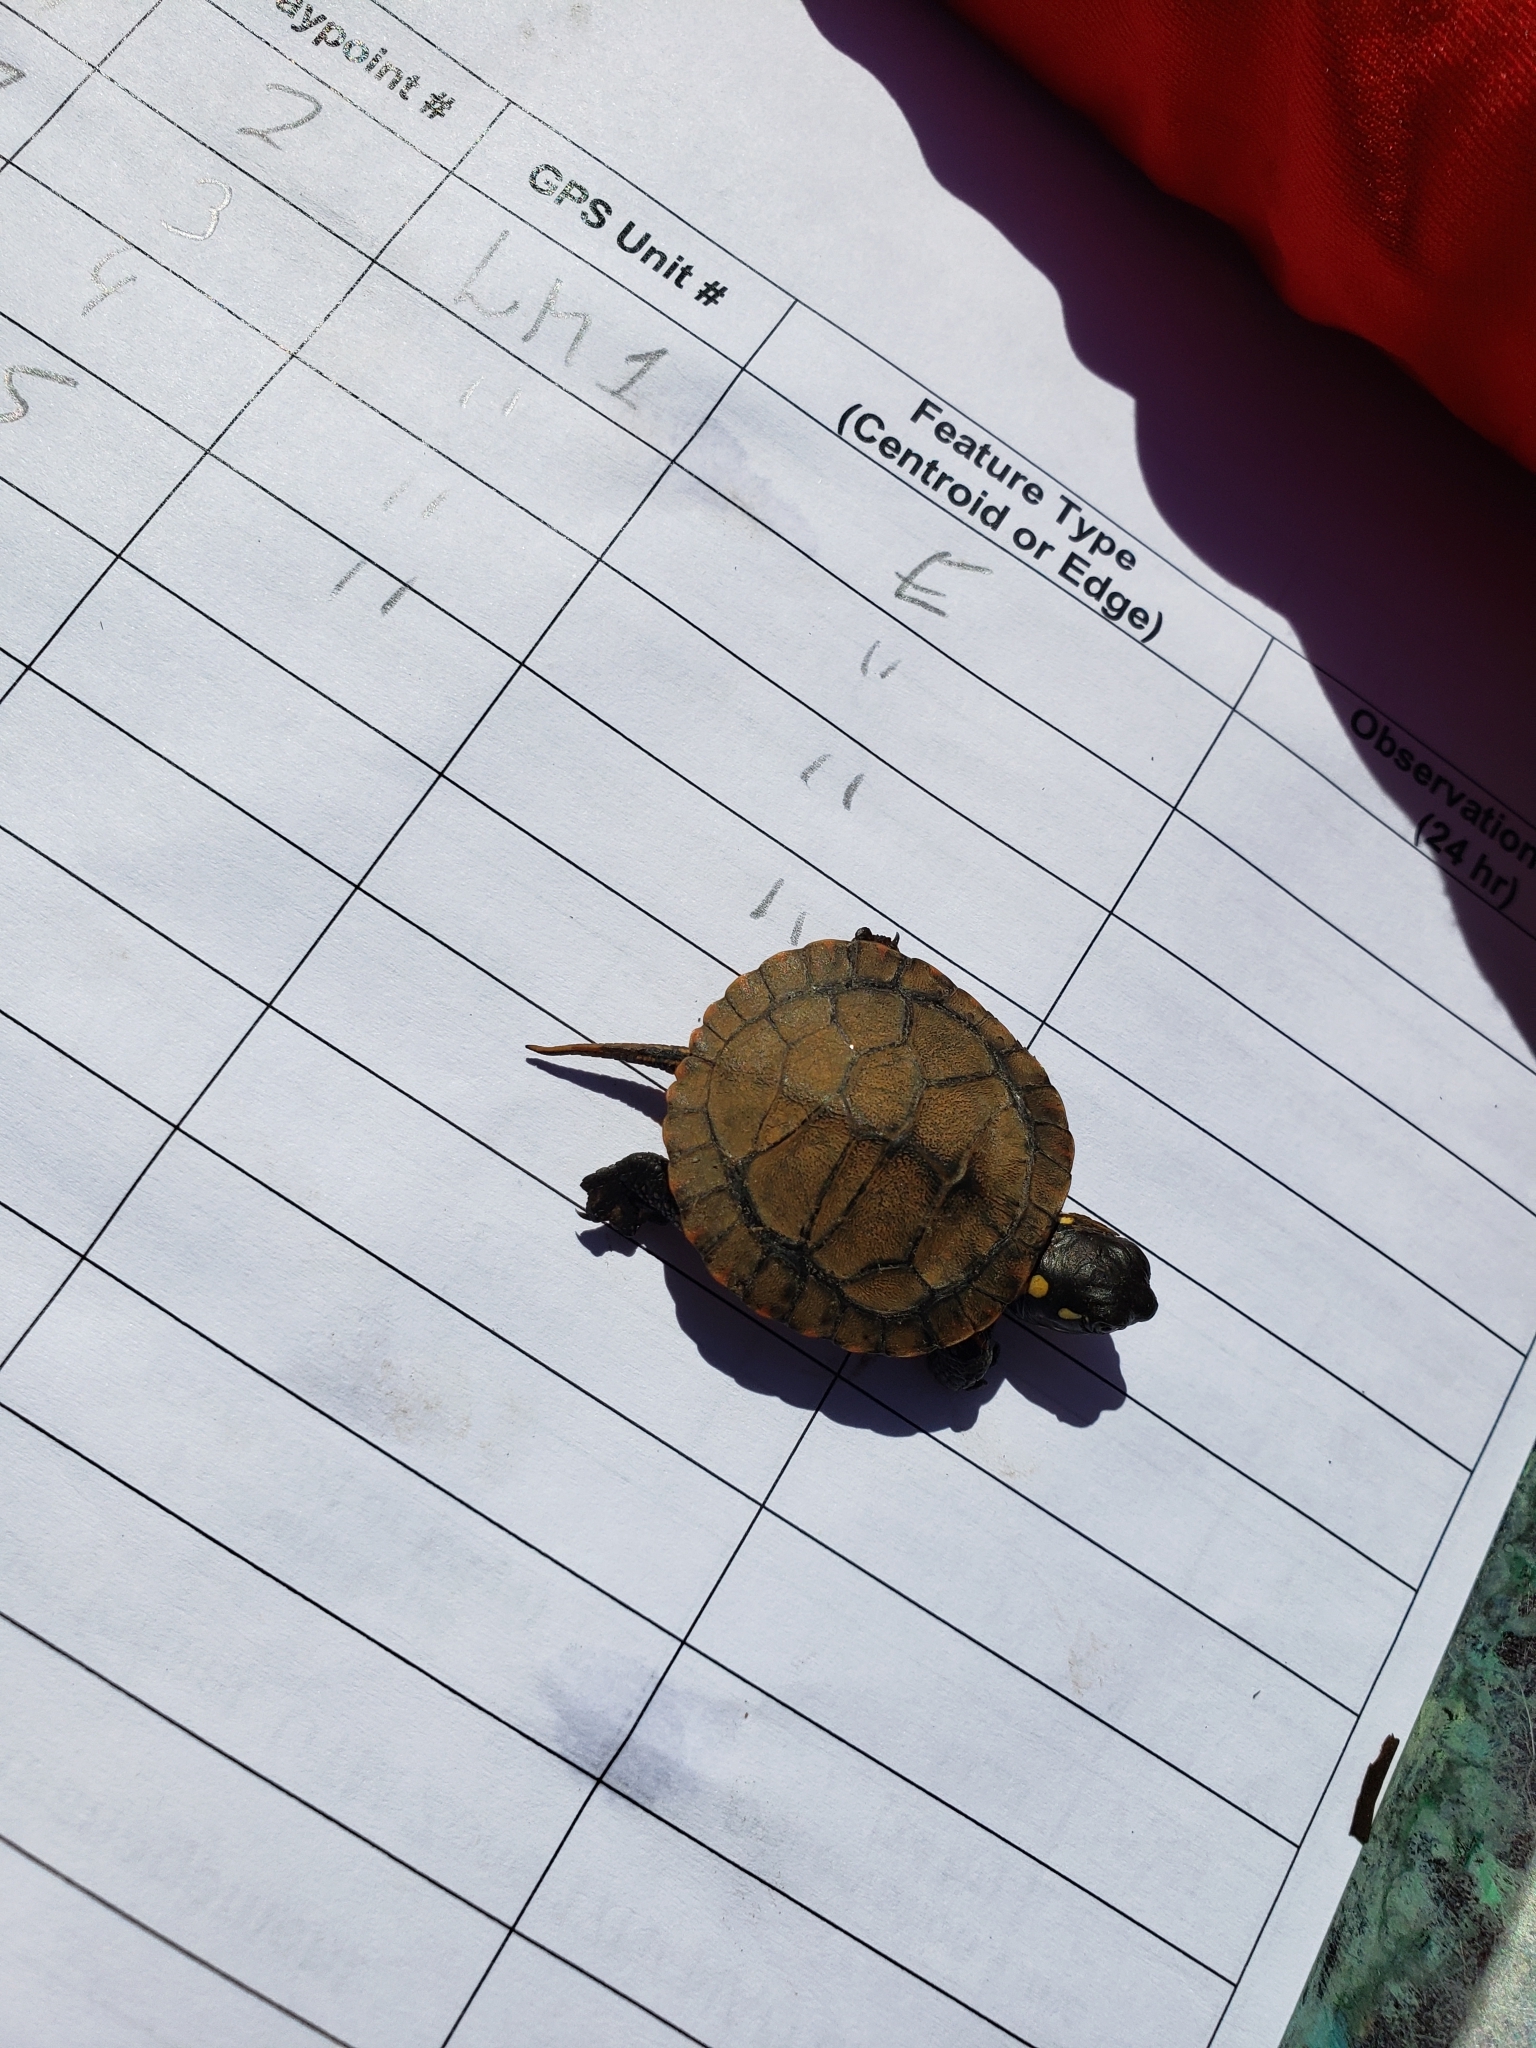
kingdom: Animalia
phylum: Chordata
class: Testudines
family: Emydidae
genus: Chrysemys
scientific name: Chrysemys picta
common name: Painted turtle
